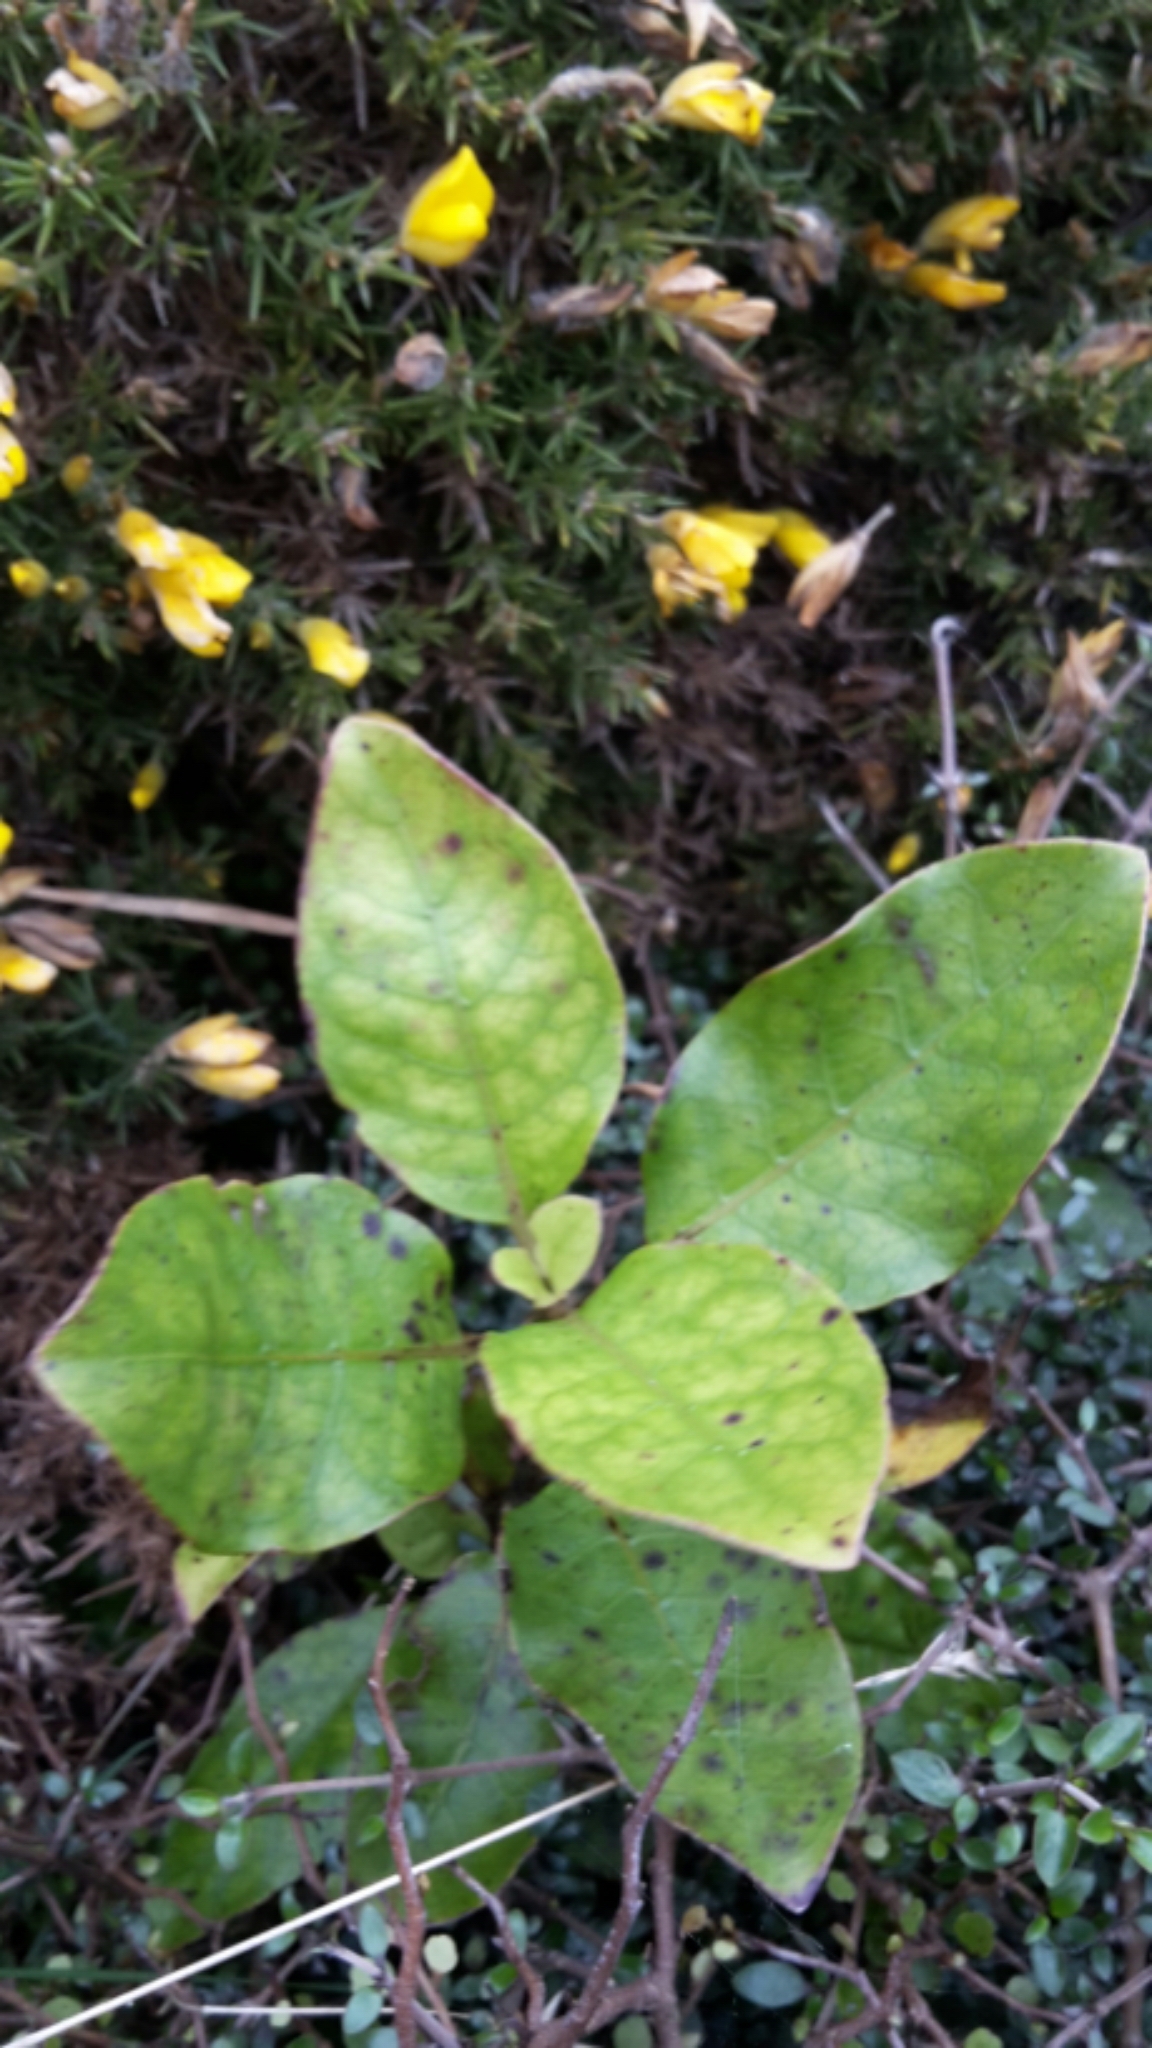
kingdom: Plantae
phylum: Tracheophyta
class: Magnoliopsida
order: Gentianales
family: Rubiaceae
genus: Coprosma
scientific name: Coprosma robusta
